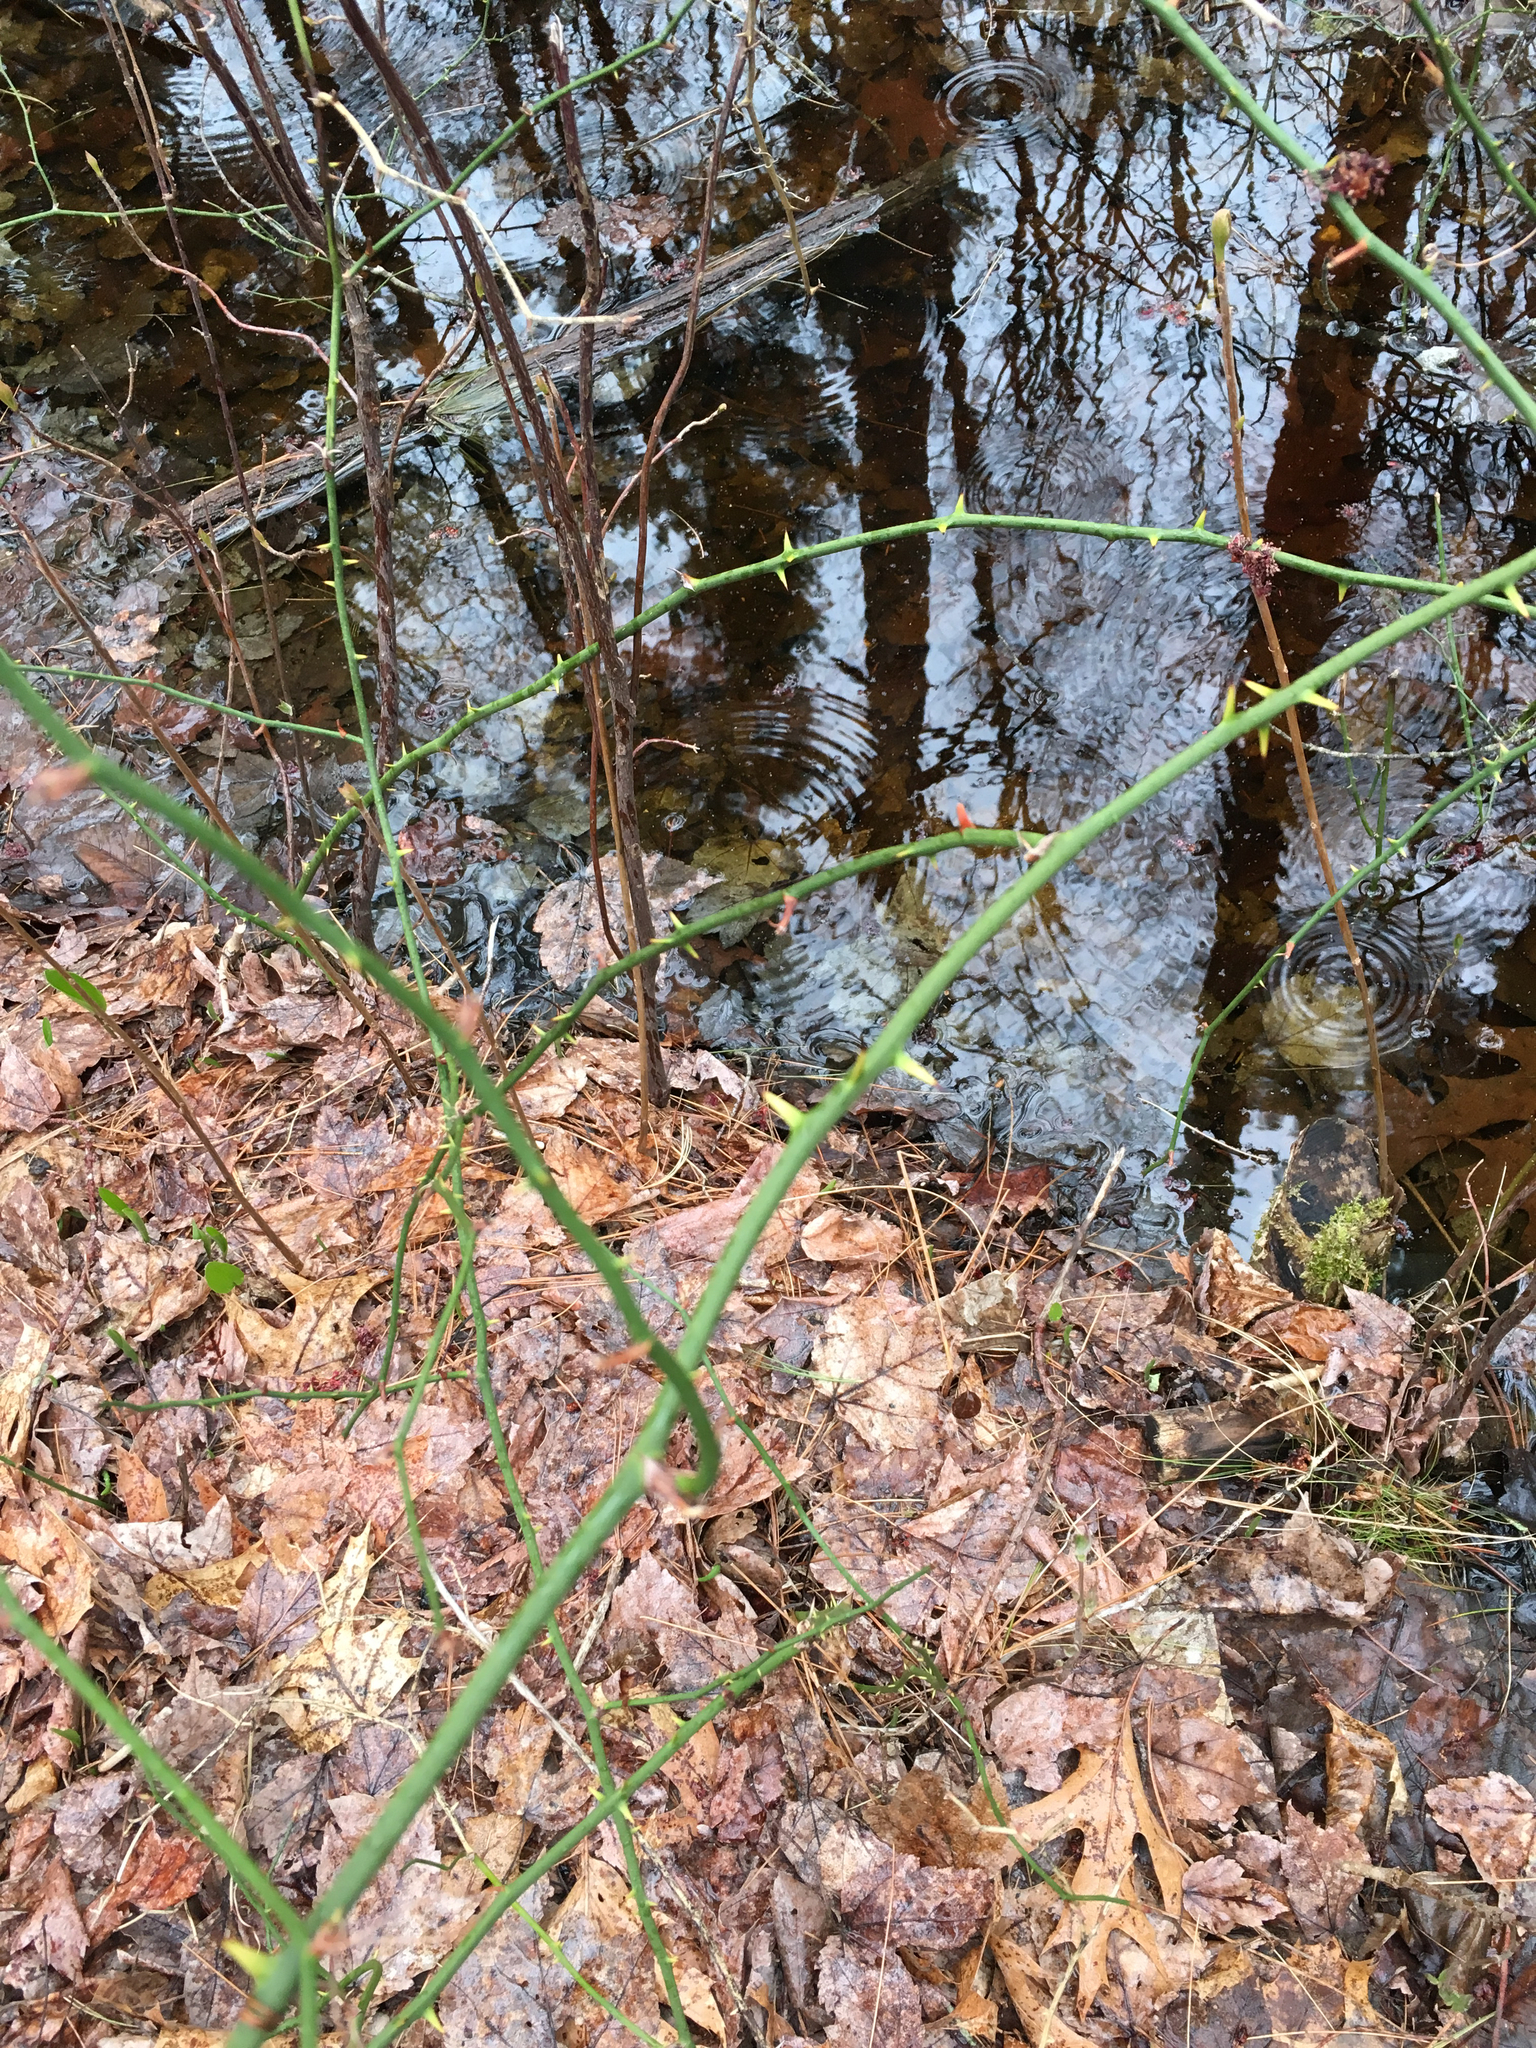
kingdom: Plantae
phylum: Tracheophyta
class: Liliopsida
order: Liliales
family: Smilacaceae
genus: Smilax
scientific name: Smilax rotundifolia
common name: Bullbriar
